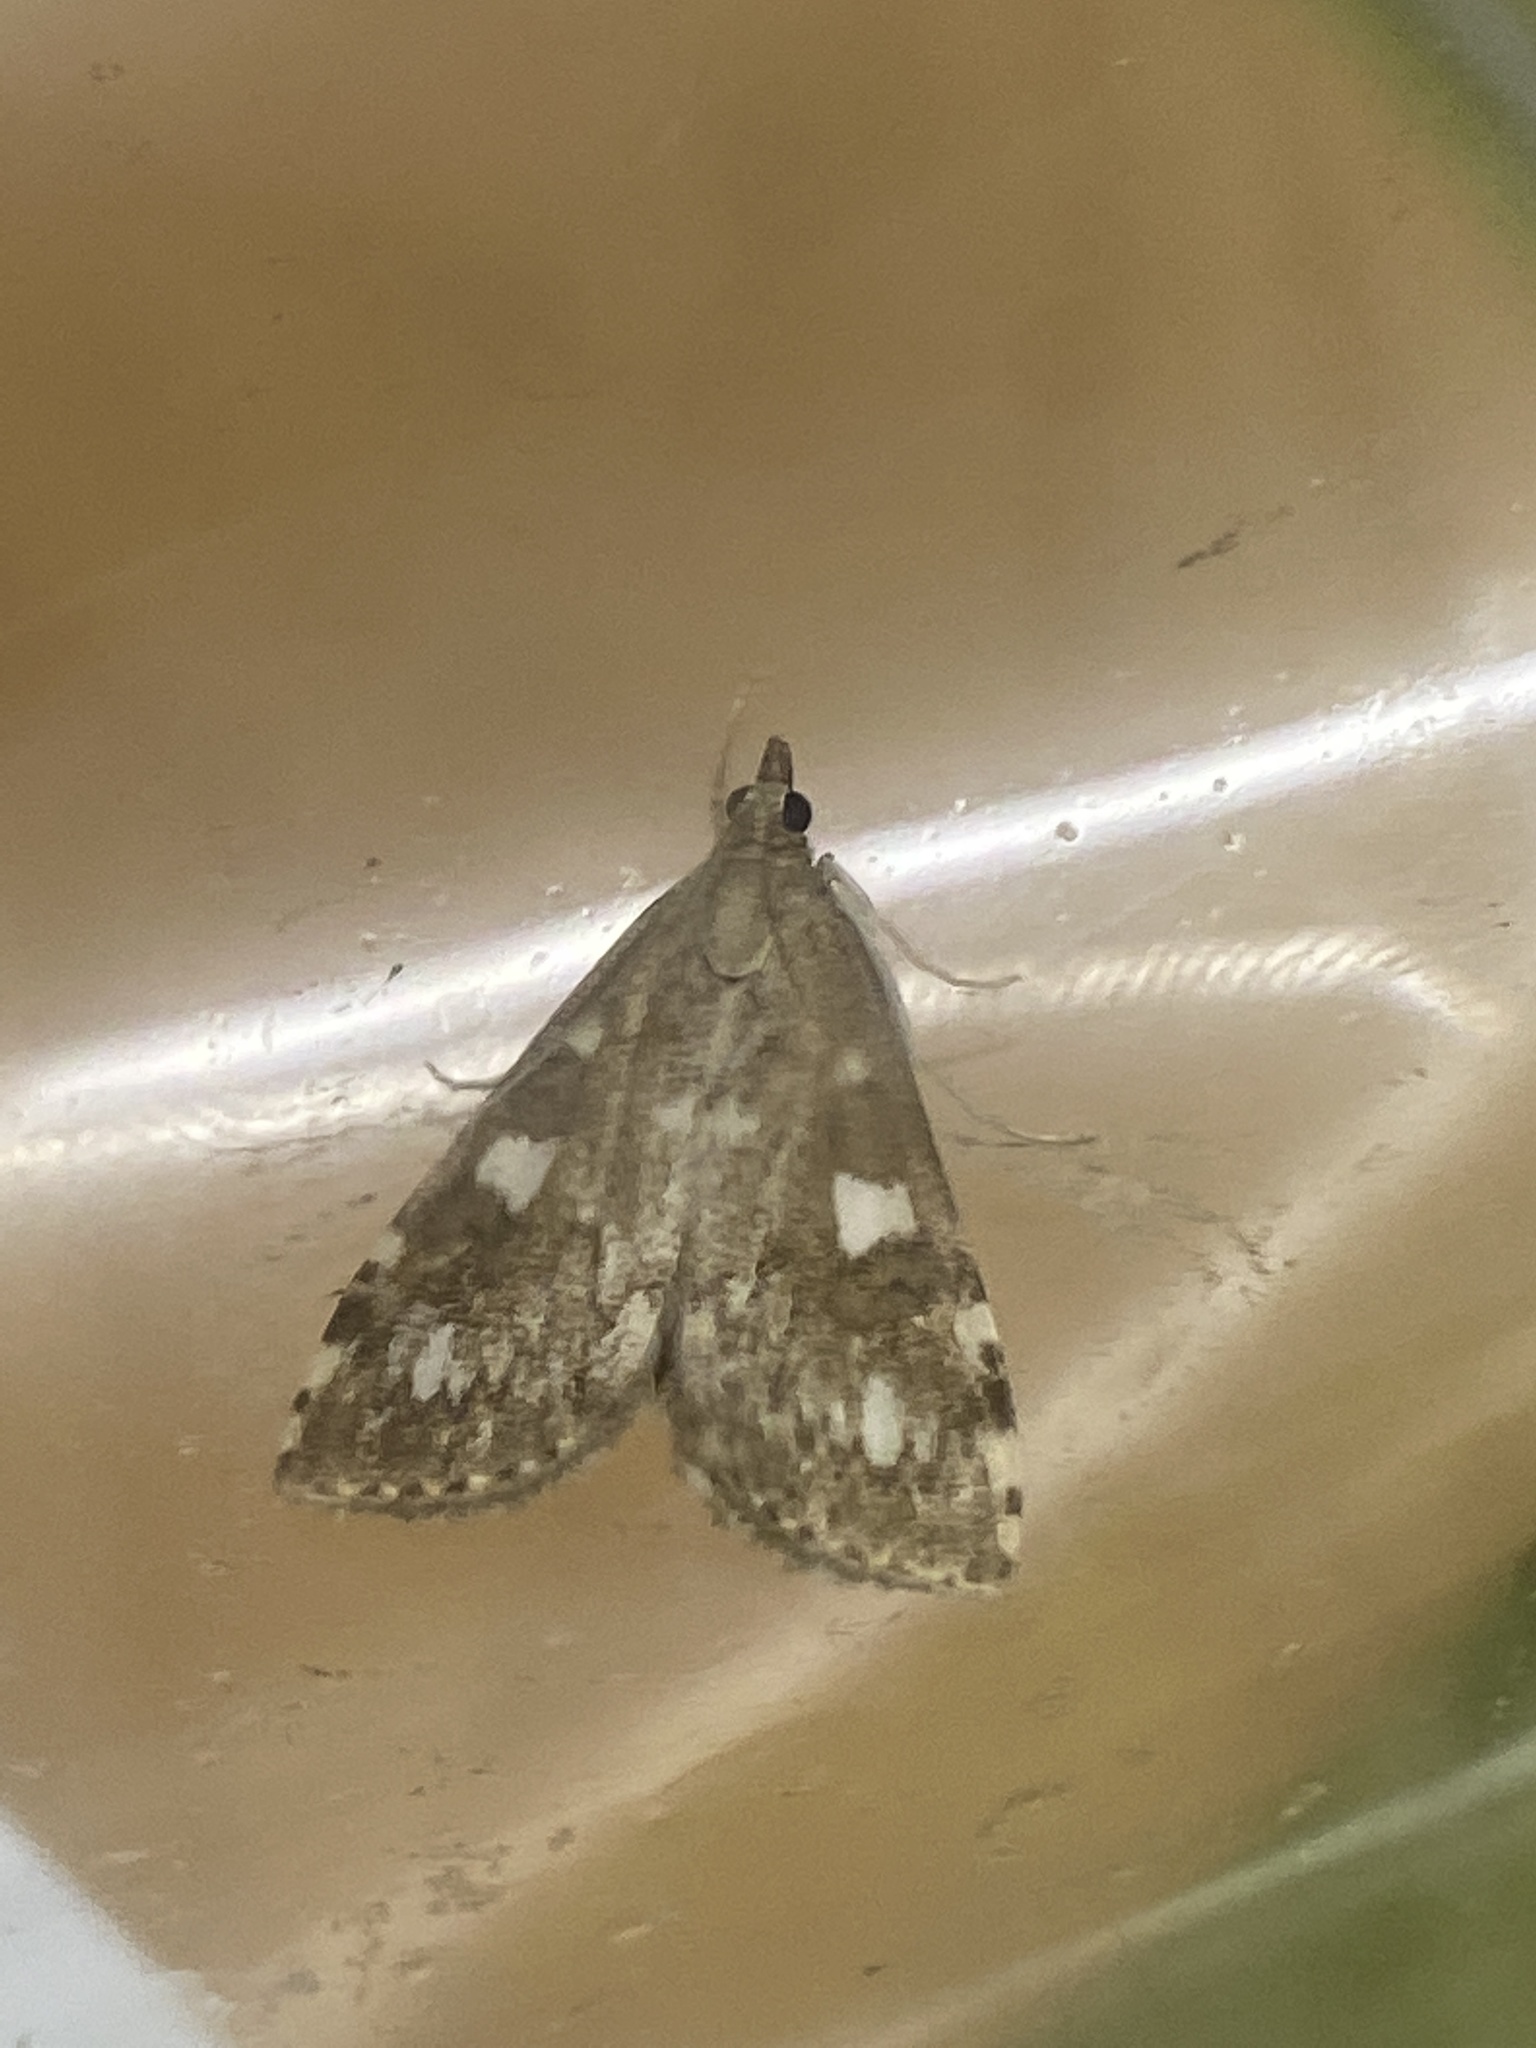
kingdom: Animalia
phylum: Arthropoda
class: Insecta
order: Lepidoptera
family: Crambidae
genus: Udea
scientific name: Udea olivalis
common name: Olive pearl
